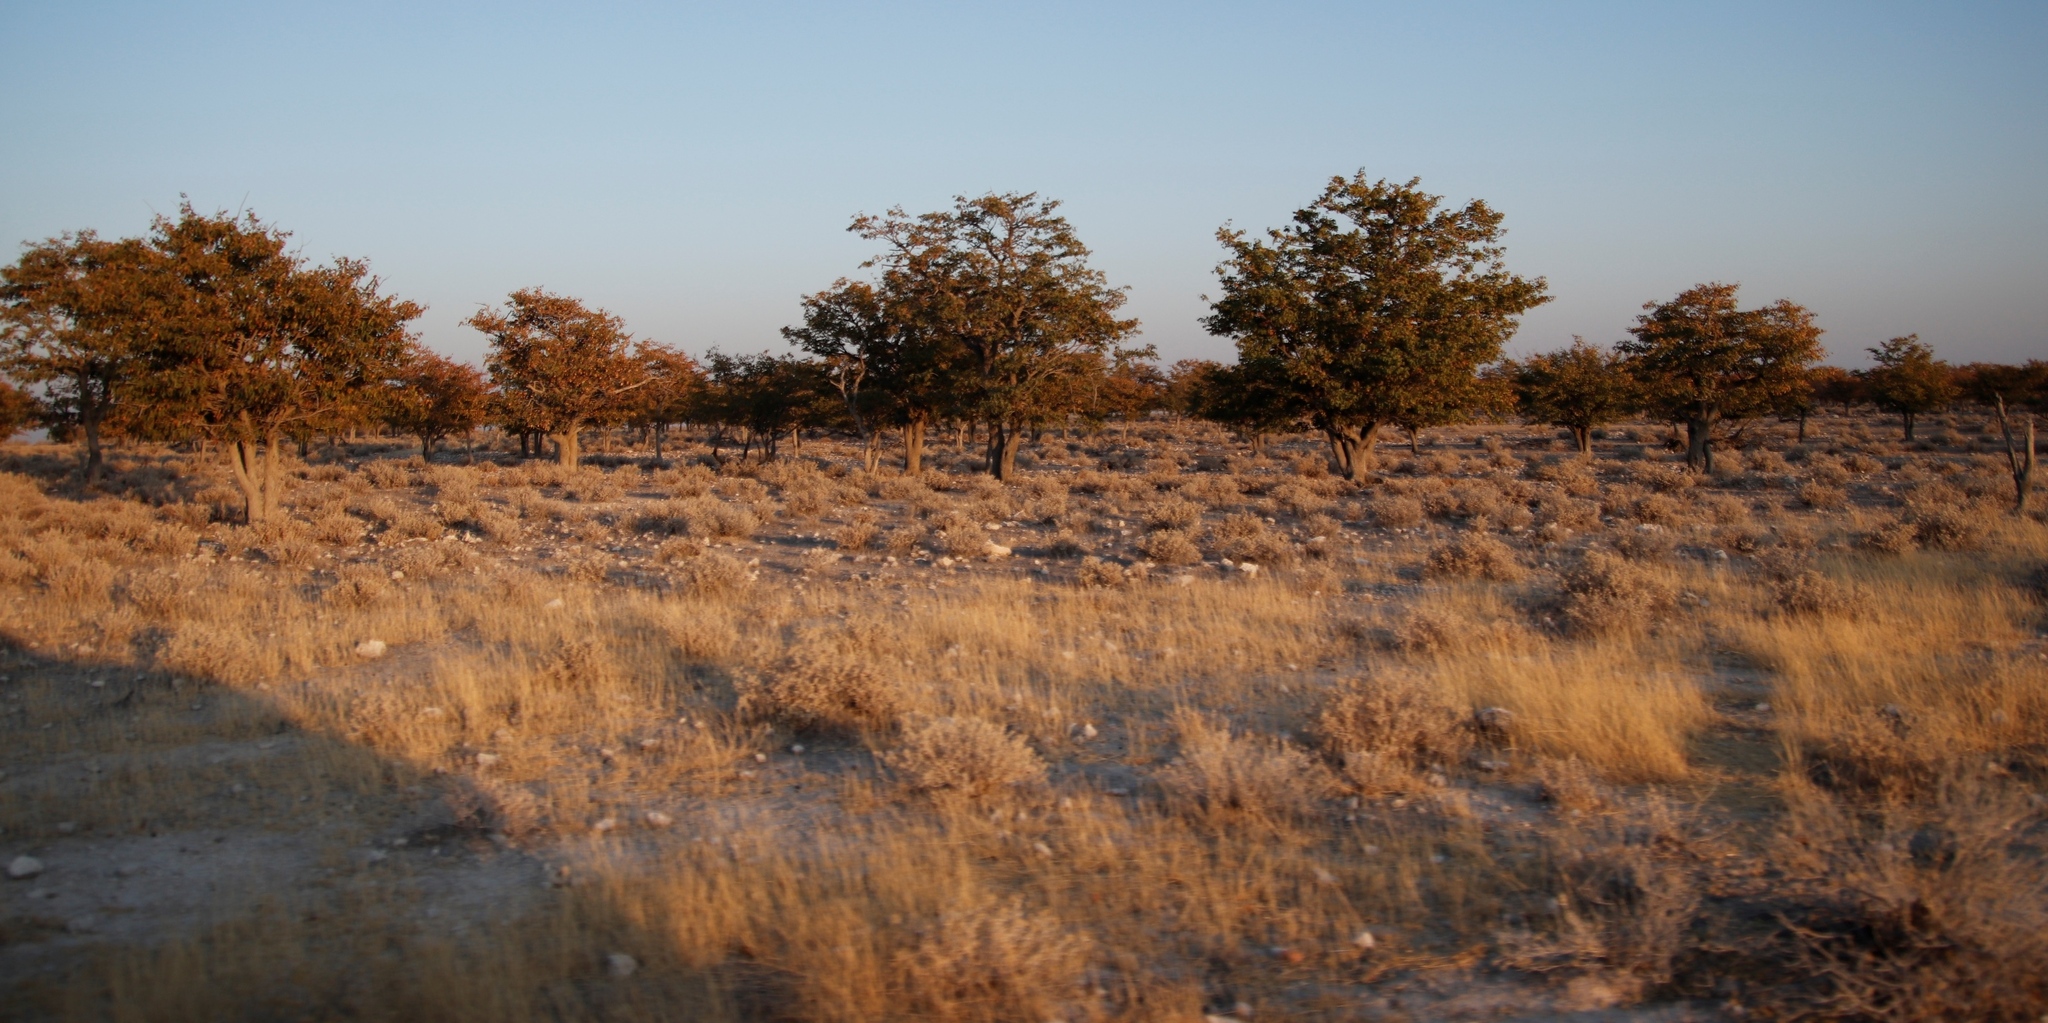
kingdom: Plantae
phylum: Tracheophyta
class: Magnoliopsida
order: Fabales
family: Fabaceae
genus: Colophospermum
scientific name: Colophospermum mopane
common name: Mopane
